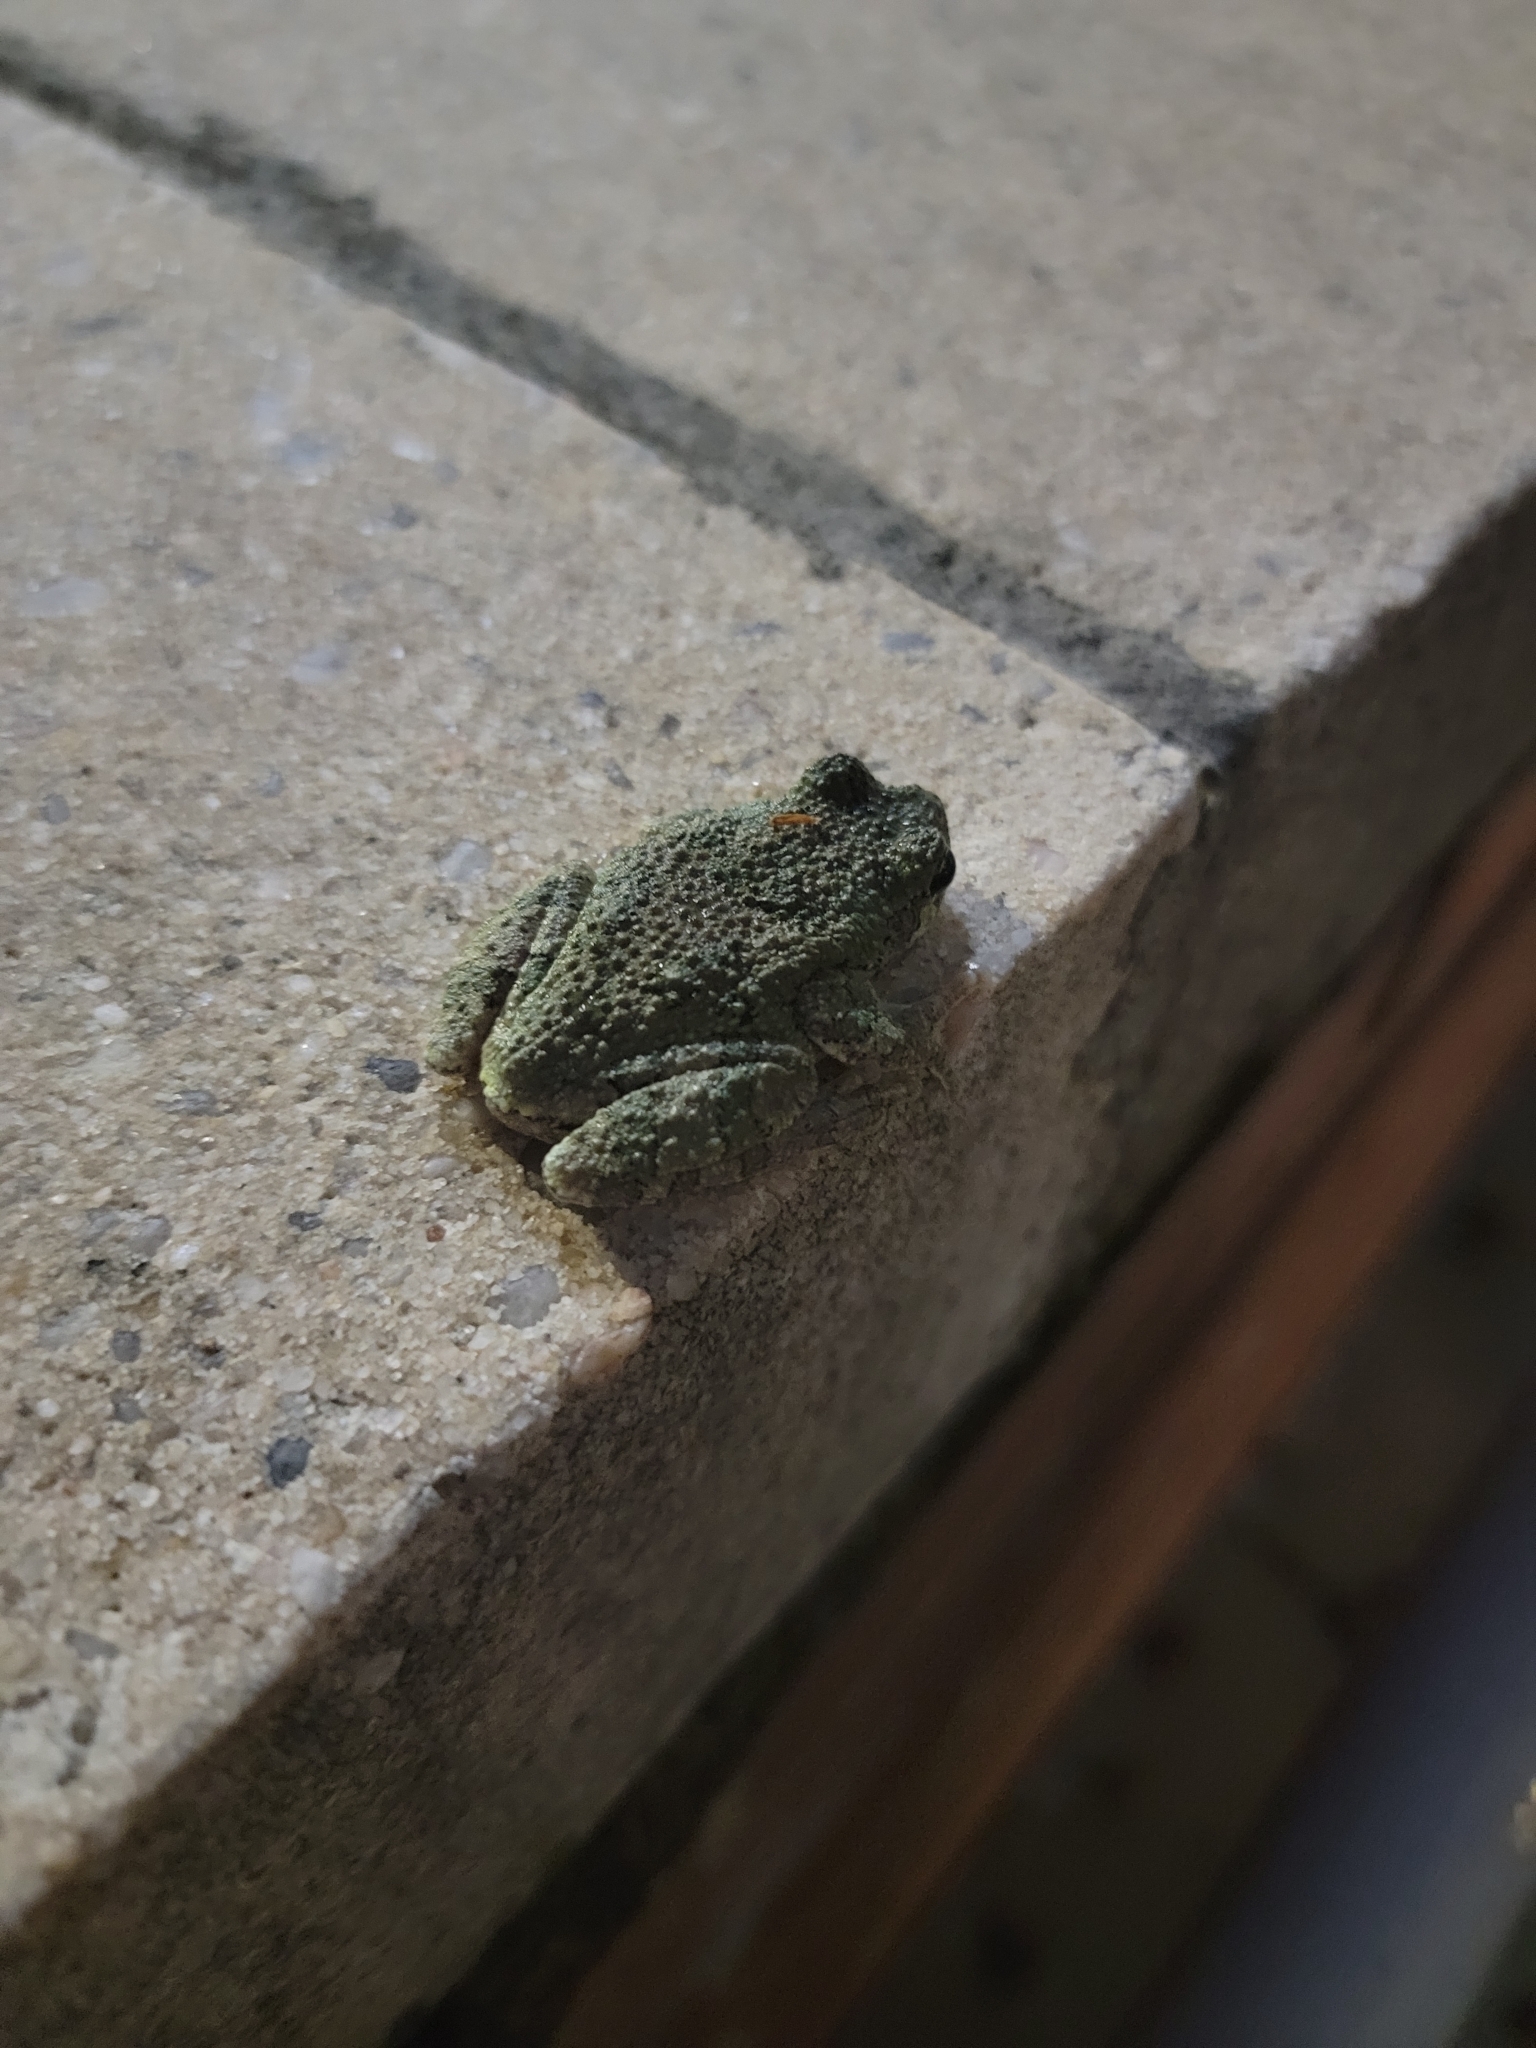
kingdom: Animalia
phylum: Chordata
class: Amphibia
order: Anura
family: Hylidae
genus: Dryophytes
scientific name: Dryophytes chrysoscelis
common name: Cope's gray treefrog
